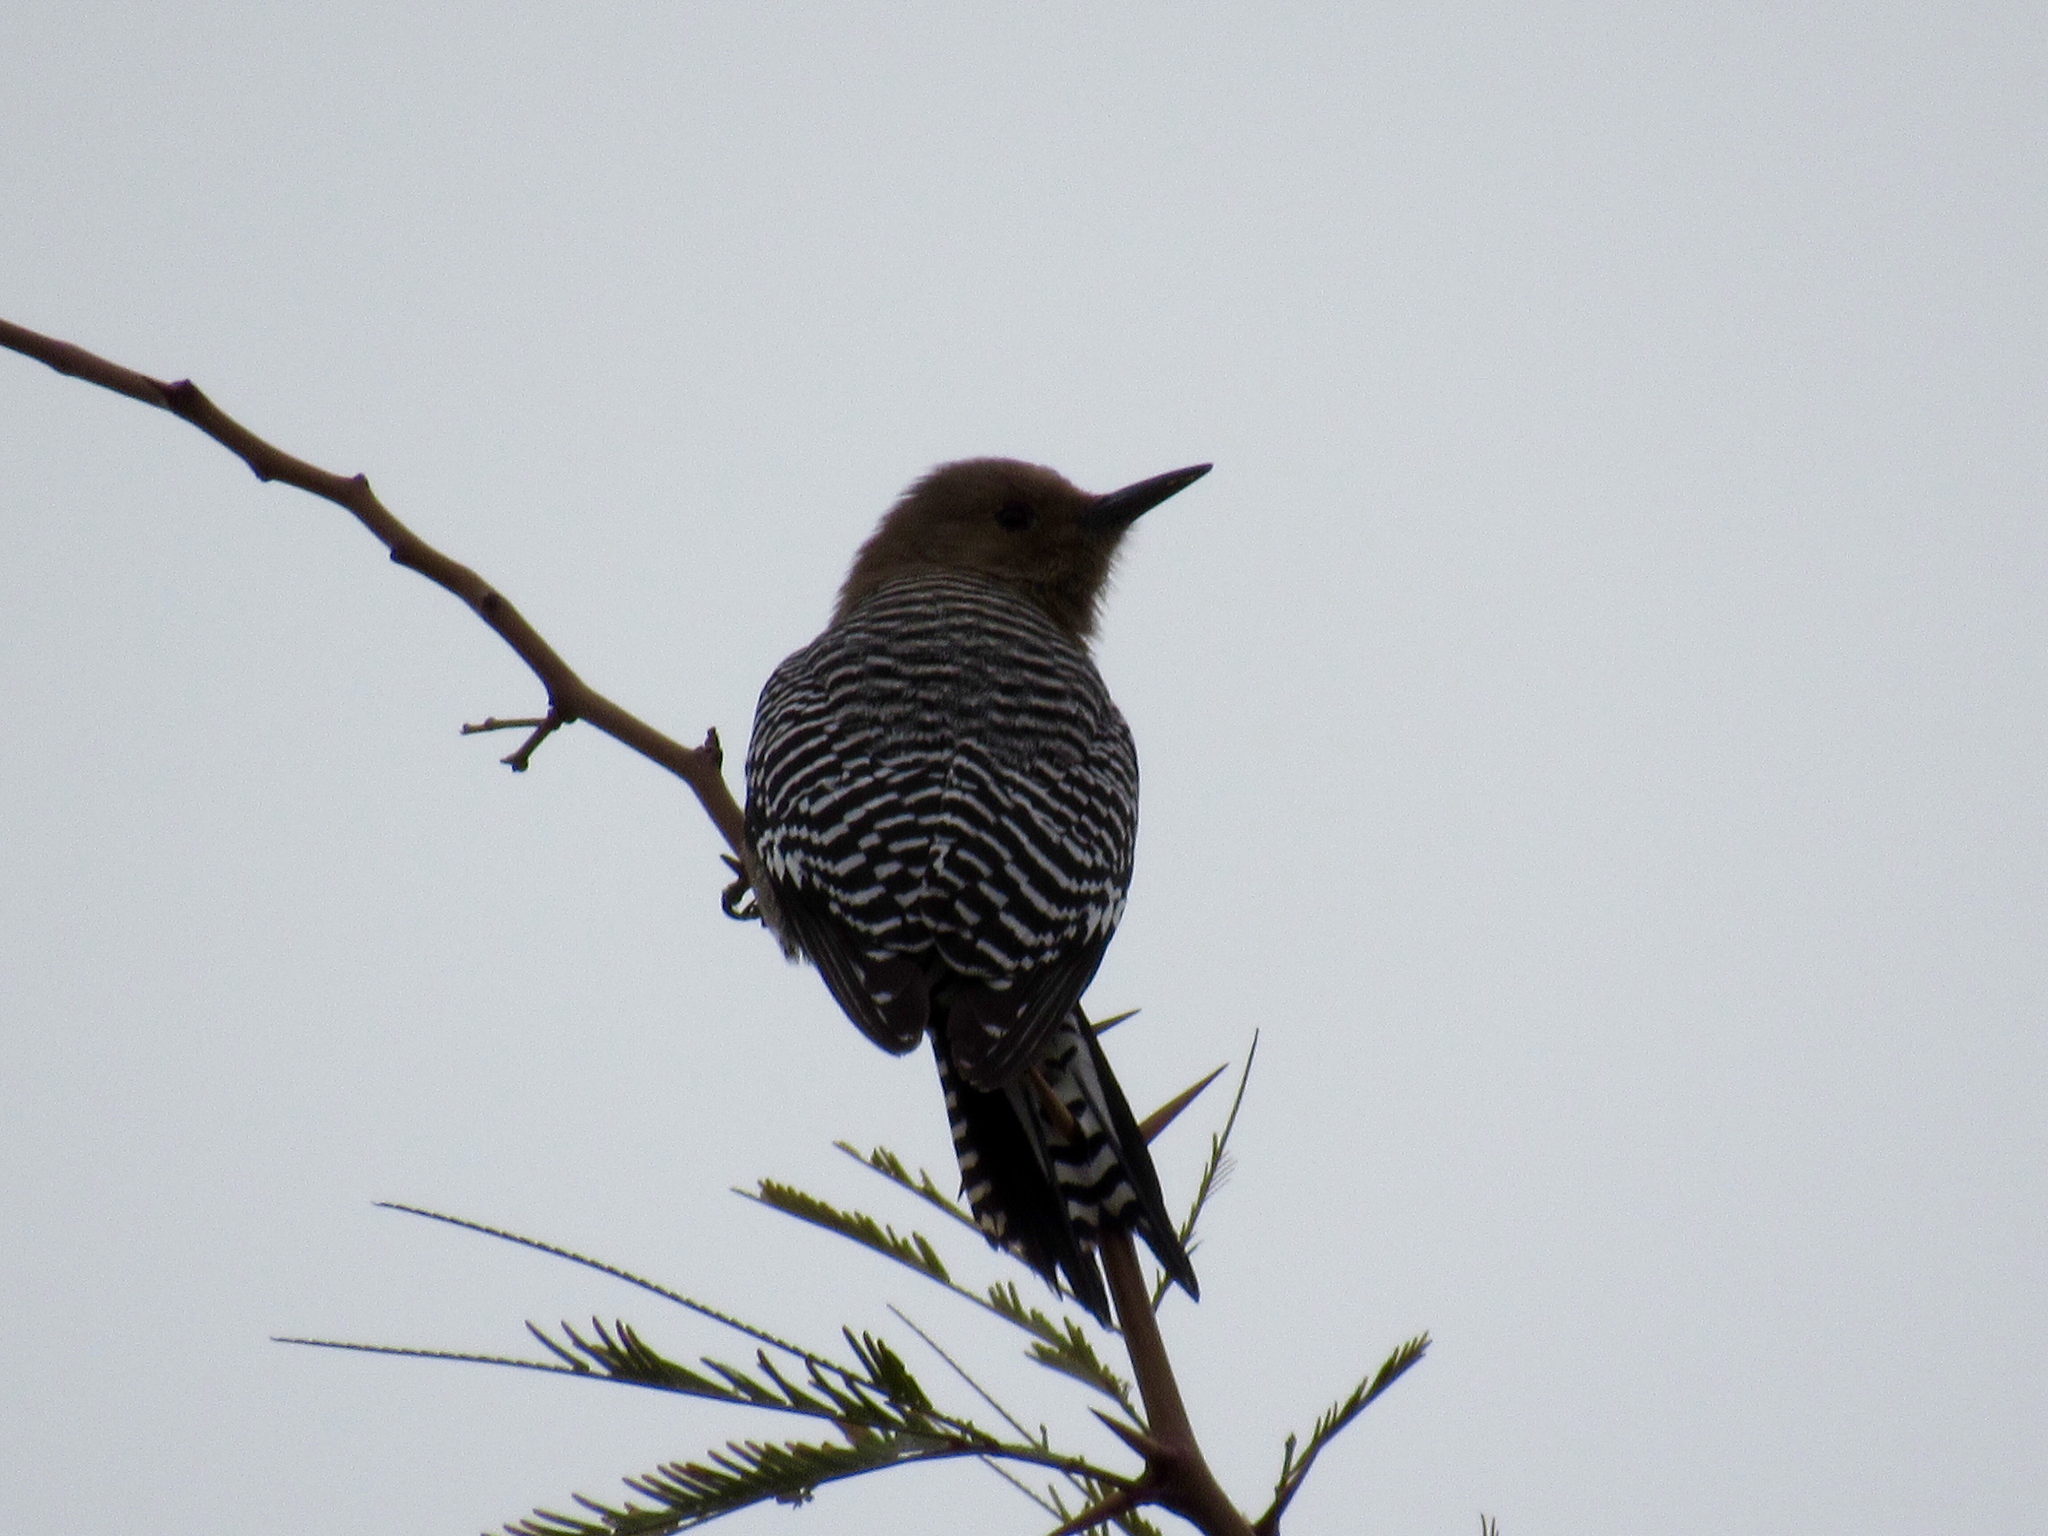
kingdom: Animalia
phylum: Chordata
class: Aves
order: Piciformes
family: Picidae
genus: Melanerpes
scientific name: Melanerpes uropygialis
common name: Gila woodpecker
